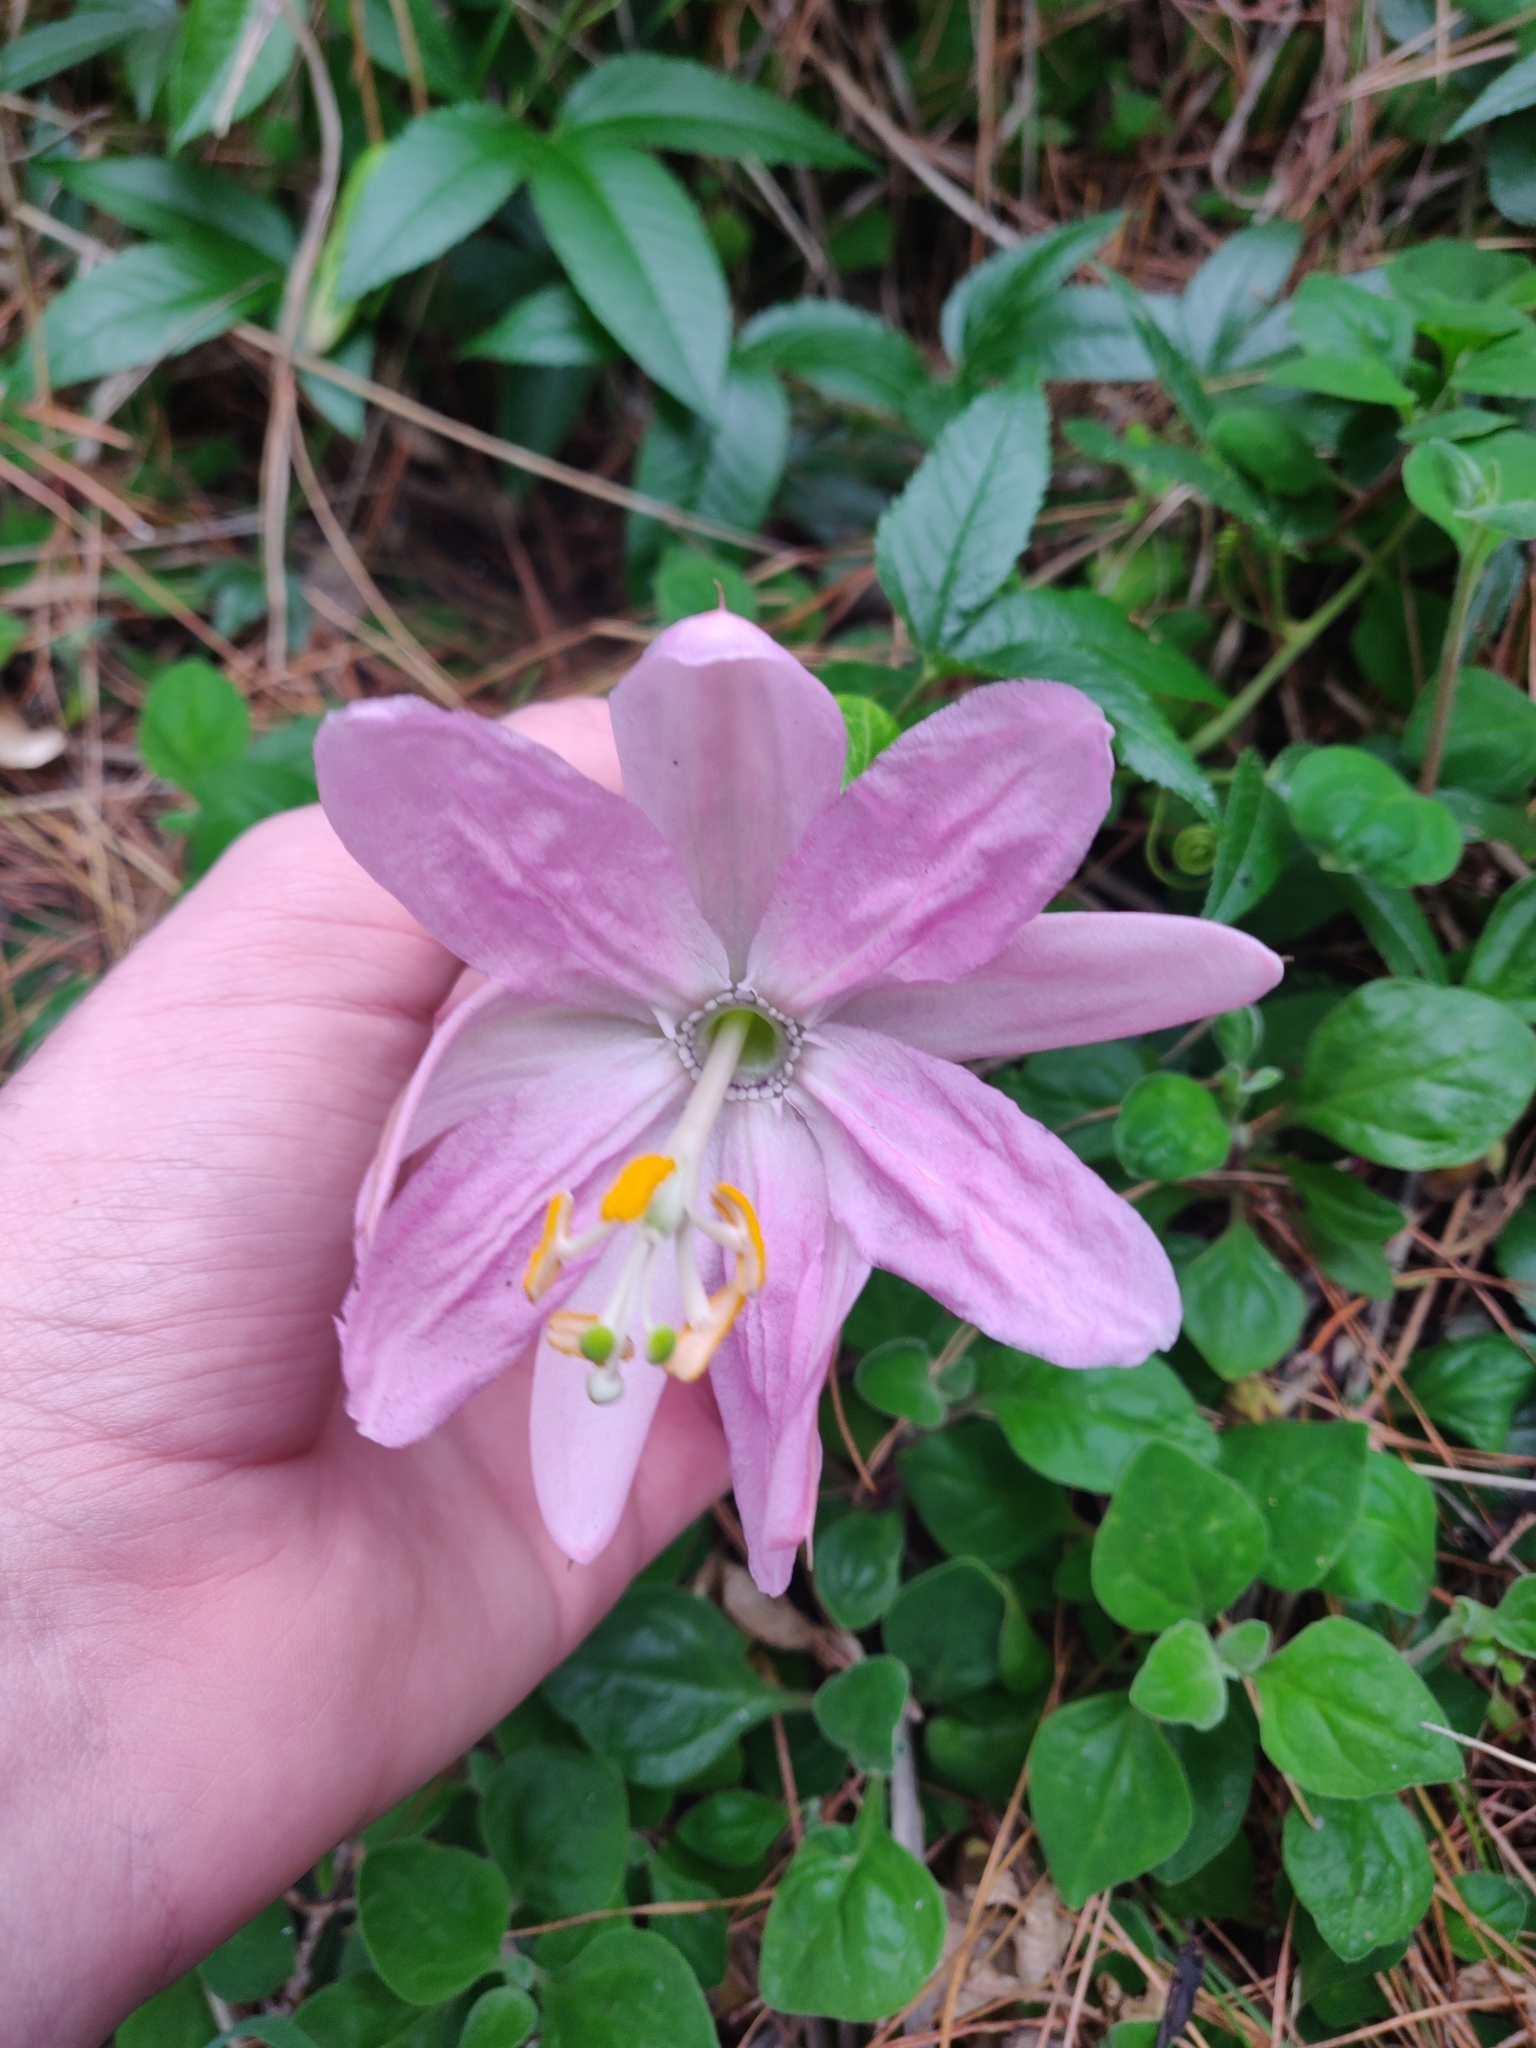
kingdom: Plantae
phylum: Tracheophyta
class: Magnoliopsida
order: Malpighiales
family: Passifloraceae
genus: Passiflora
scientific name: Passiflora tarminiana
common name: Banana poka
